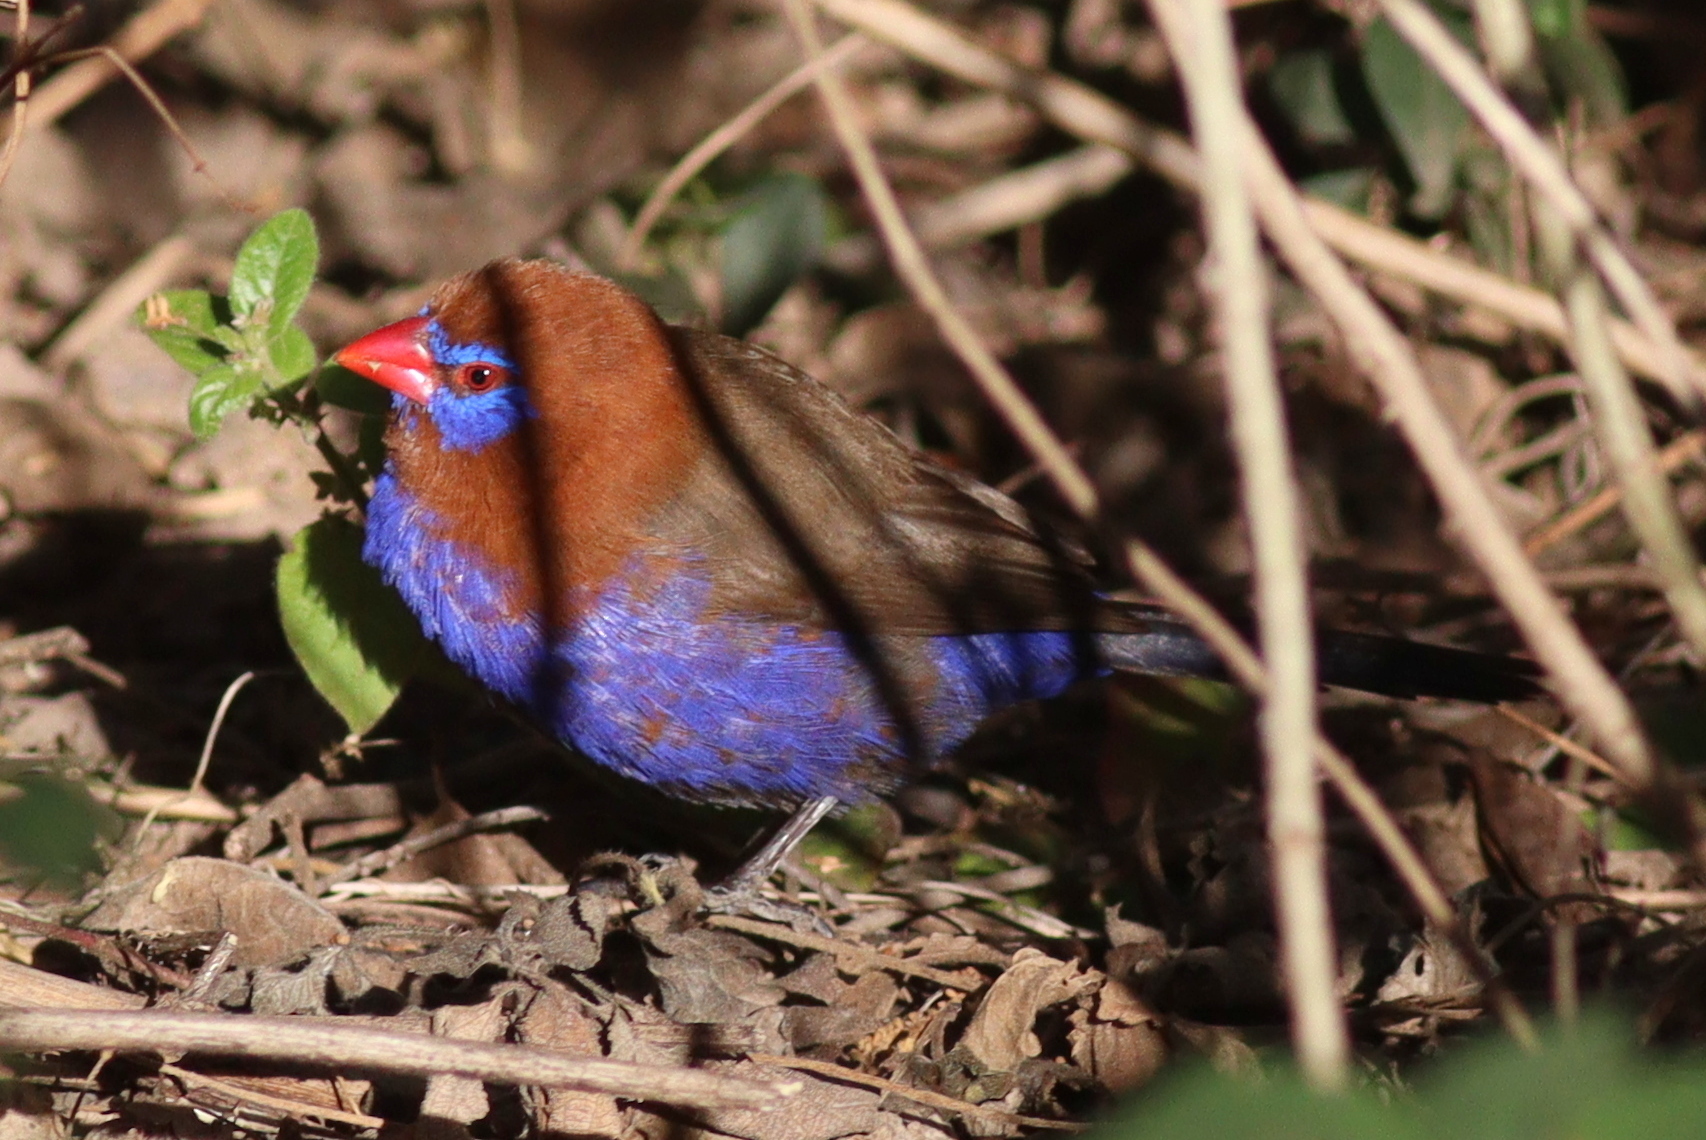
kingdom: Animalia
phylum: Chordata
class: Aves
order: Passeriformes
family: Estrildidae
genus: Uraeginthus
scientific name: Uraeginthus ianthinogaster
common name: Purple grenadier
